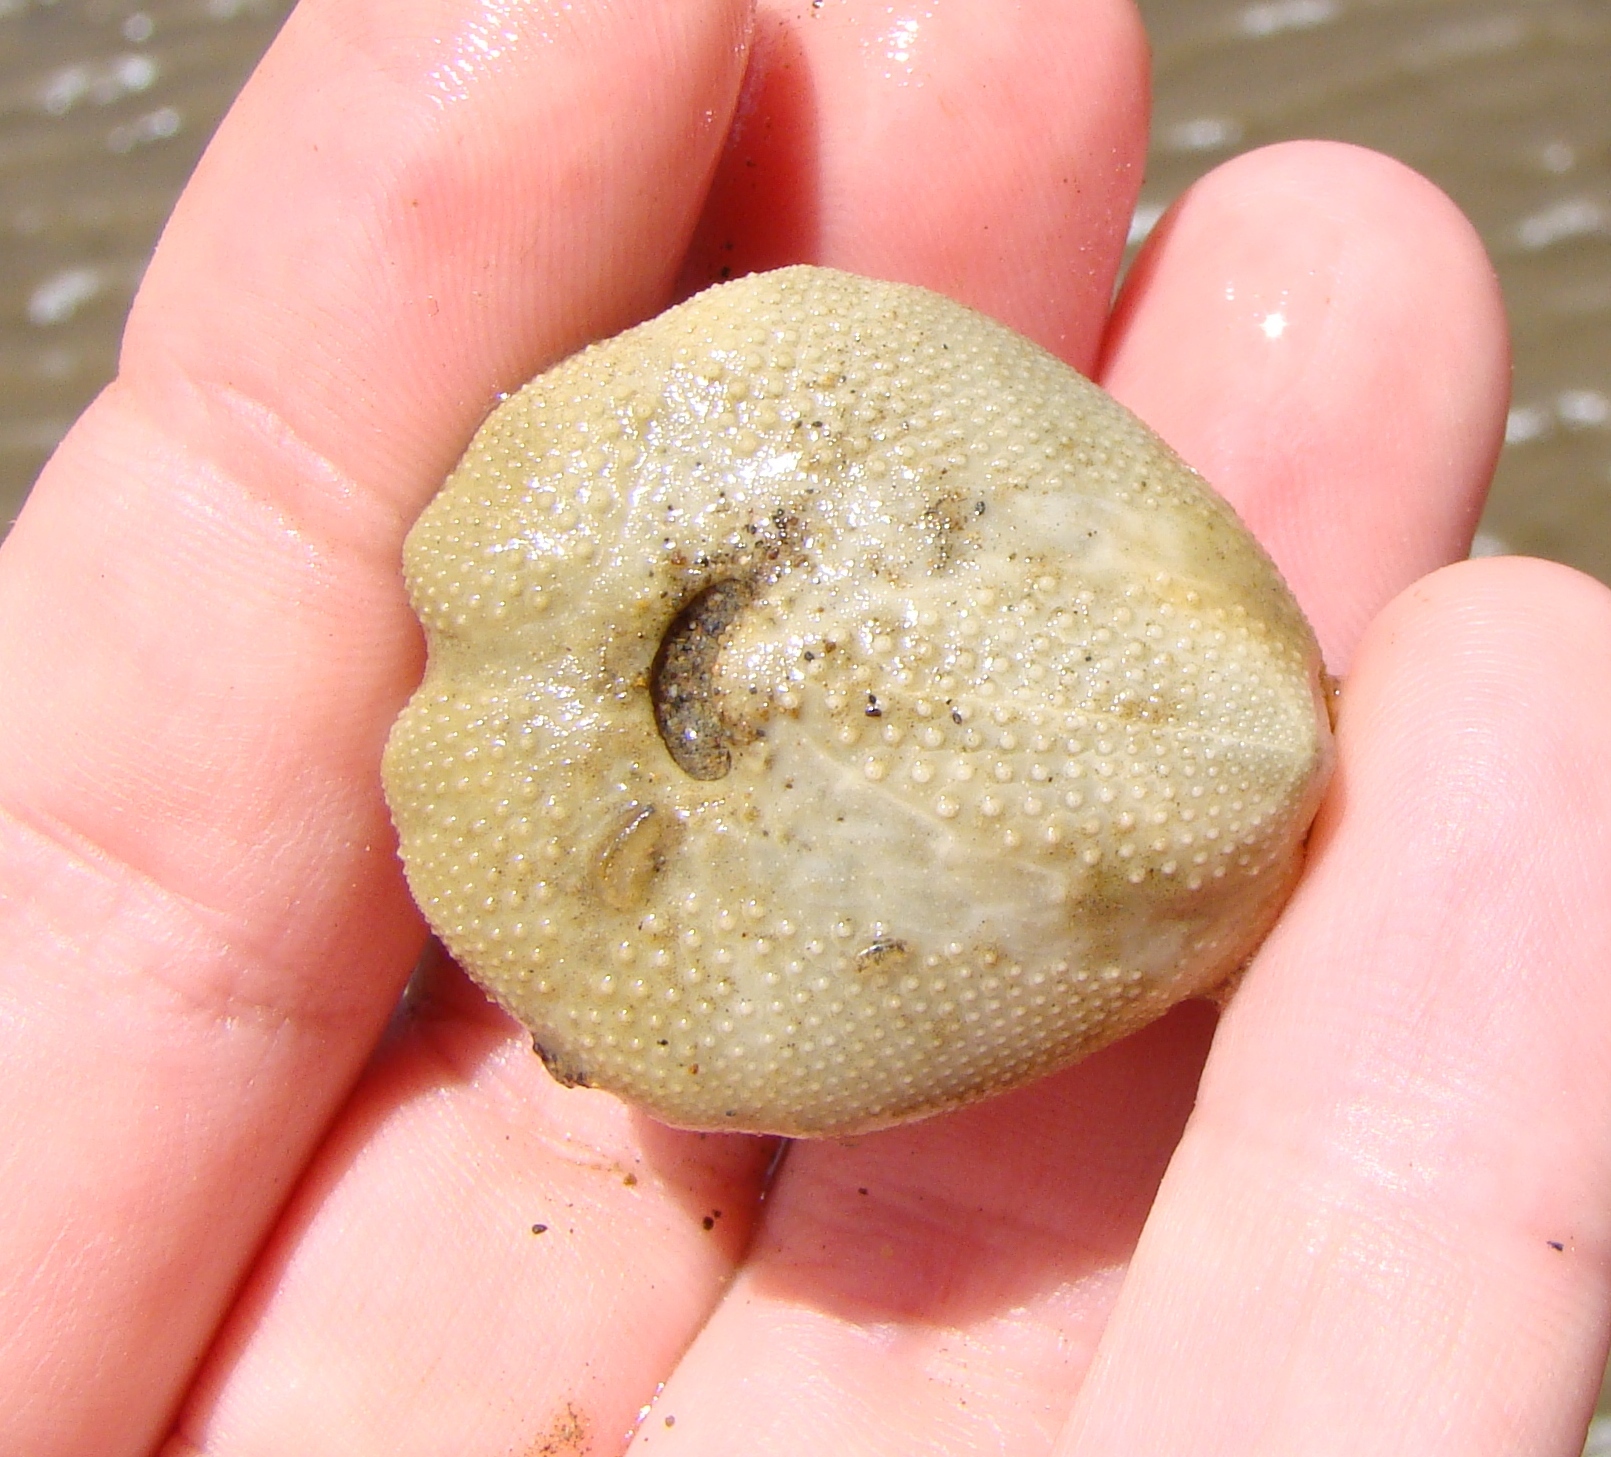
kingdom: Animalia
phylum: Echinodermata
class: Echinoidea
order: Spatangoida
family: Loveniidae
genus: Echinocardium
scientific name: Echinocardium cordatum
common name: Heart-urchin
